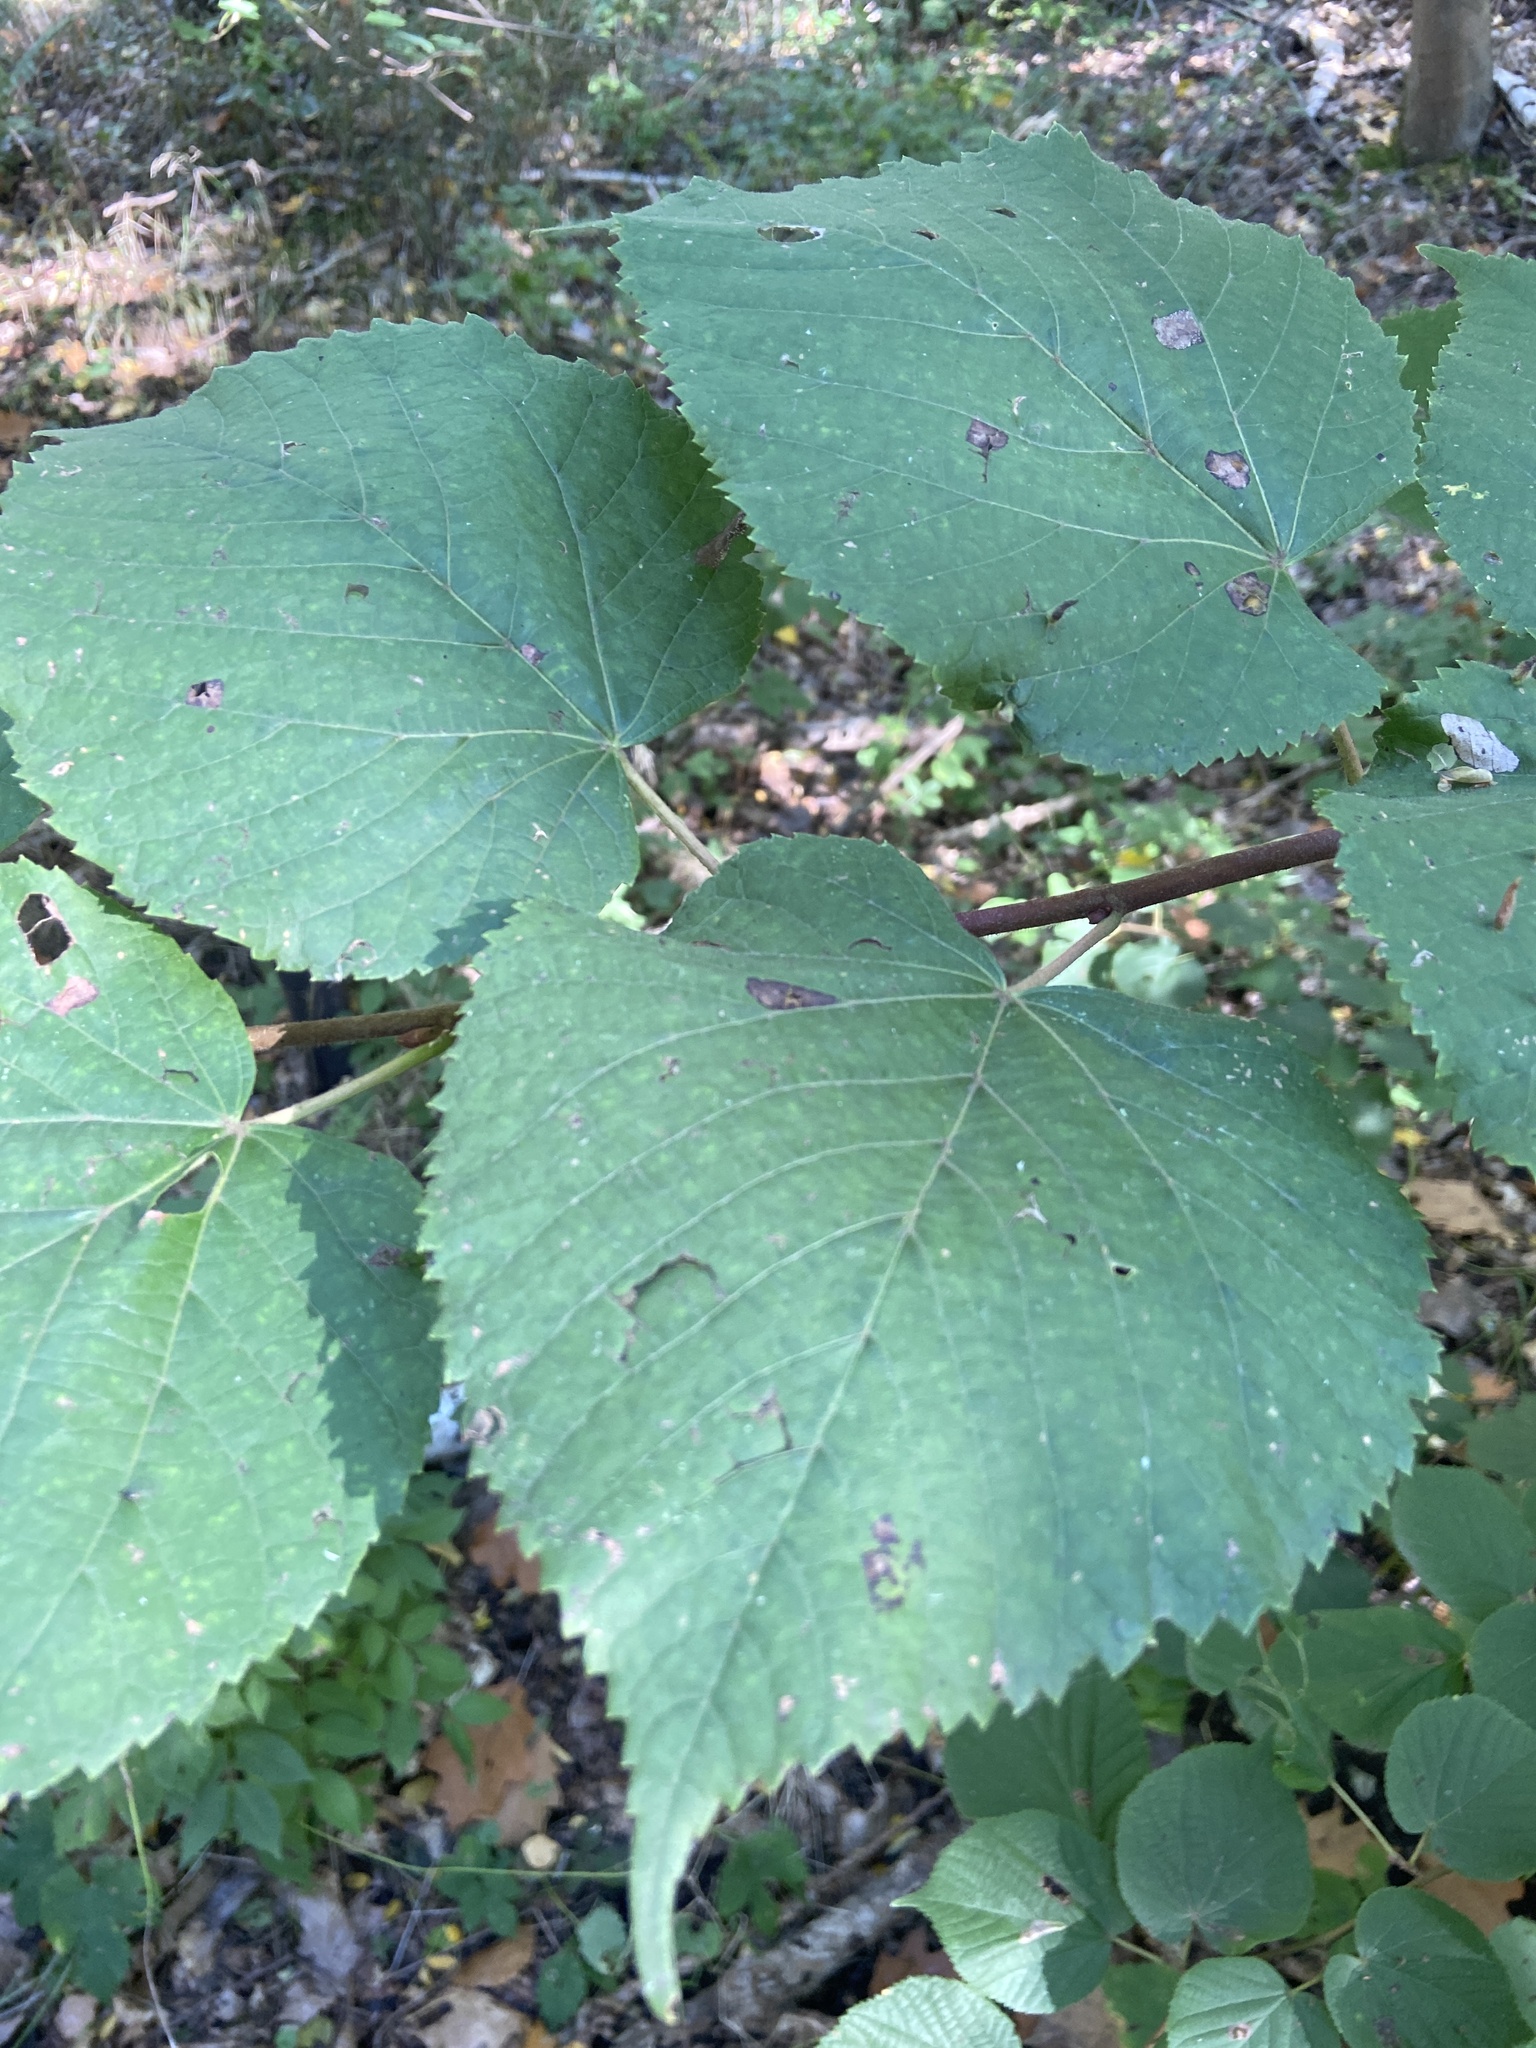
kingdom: Plantae
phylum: Tracheophyta
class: Magnoliopsida
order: Malvales
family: Malvaceae
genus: Tilia
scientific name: Tilia platyphyllos
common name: Large-leaved lime
